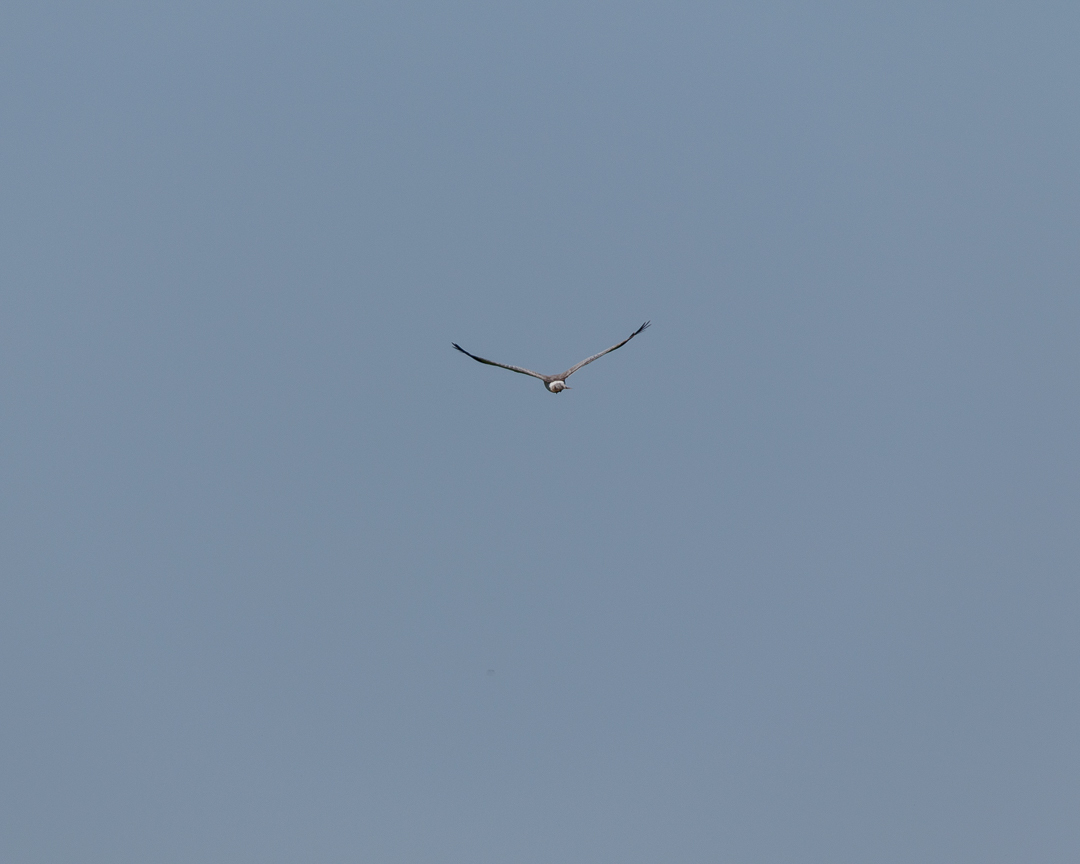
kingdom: Animalia
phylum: Chordata
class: Aves
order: Accipitriformes
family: Accipitridae
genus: Circus
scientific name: Circus cyaneus
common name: Hen harrier
